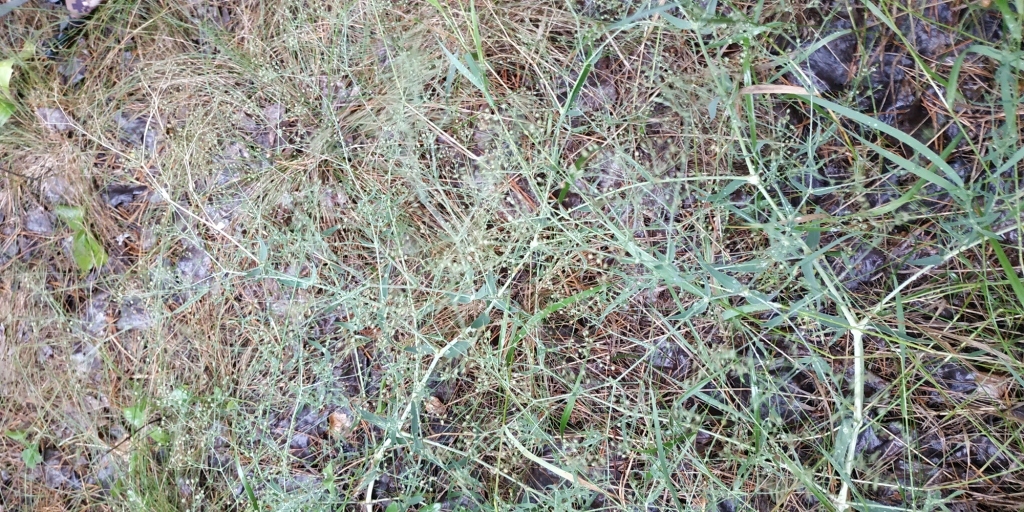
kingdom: Plantae
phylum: Tracheophyta
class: Magnoliopsida
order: Caryophyllales
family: Caryophyllaceae
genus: Gypsophila
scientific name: Gypsophila paniculata
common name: Baby's-breath
